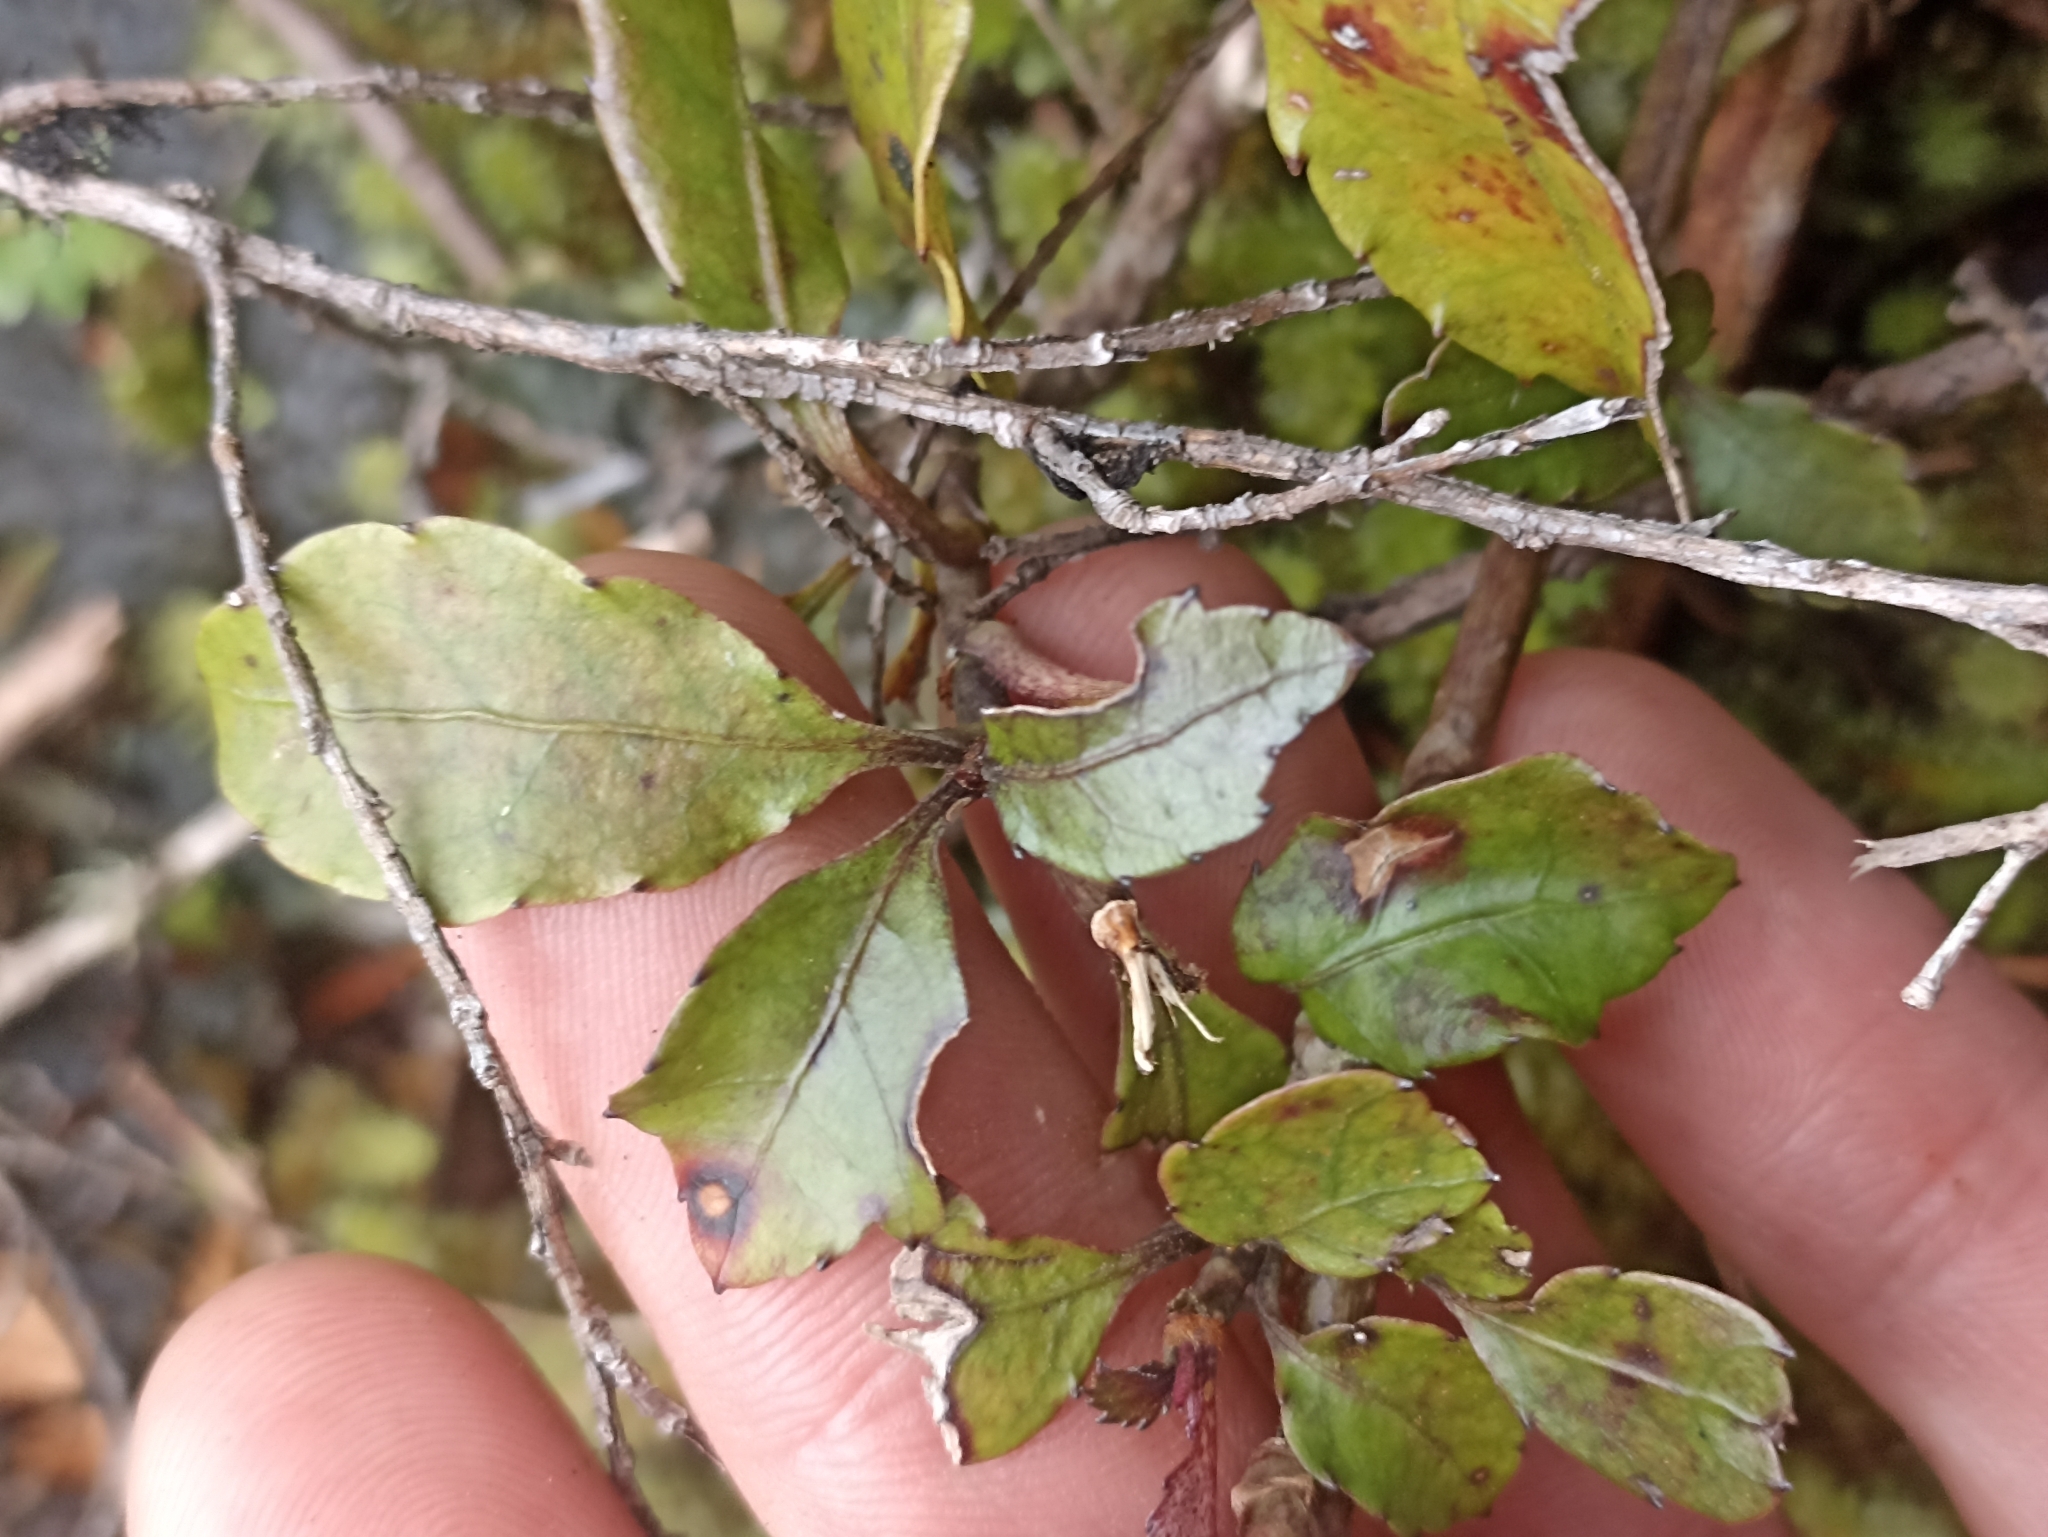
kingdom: Plantae
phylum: Tracheophyta
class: Magnoliopsida
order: Oxalidales
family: Cunoniaceae
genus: Pterophylla
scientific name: Pterophylla racemosa
